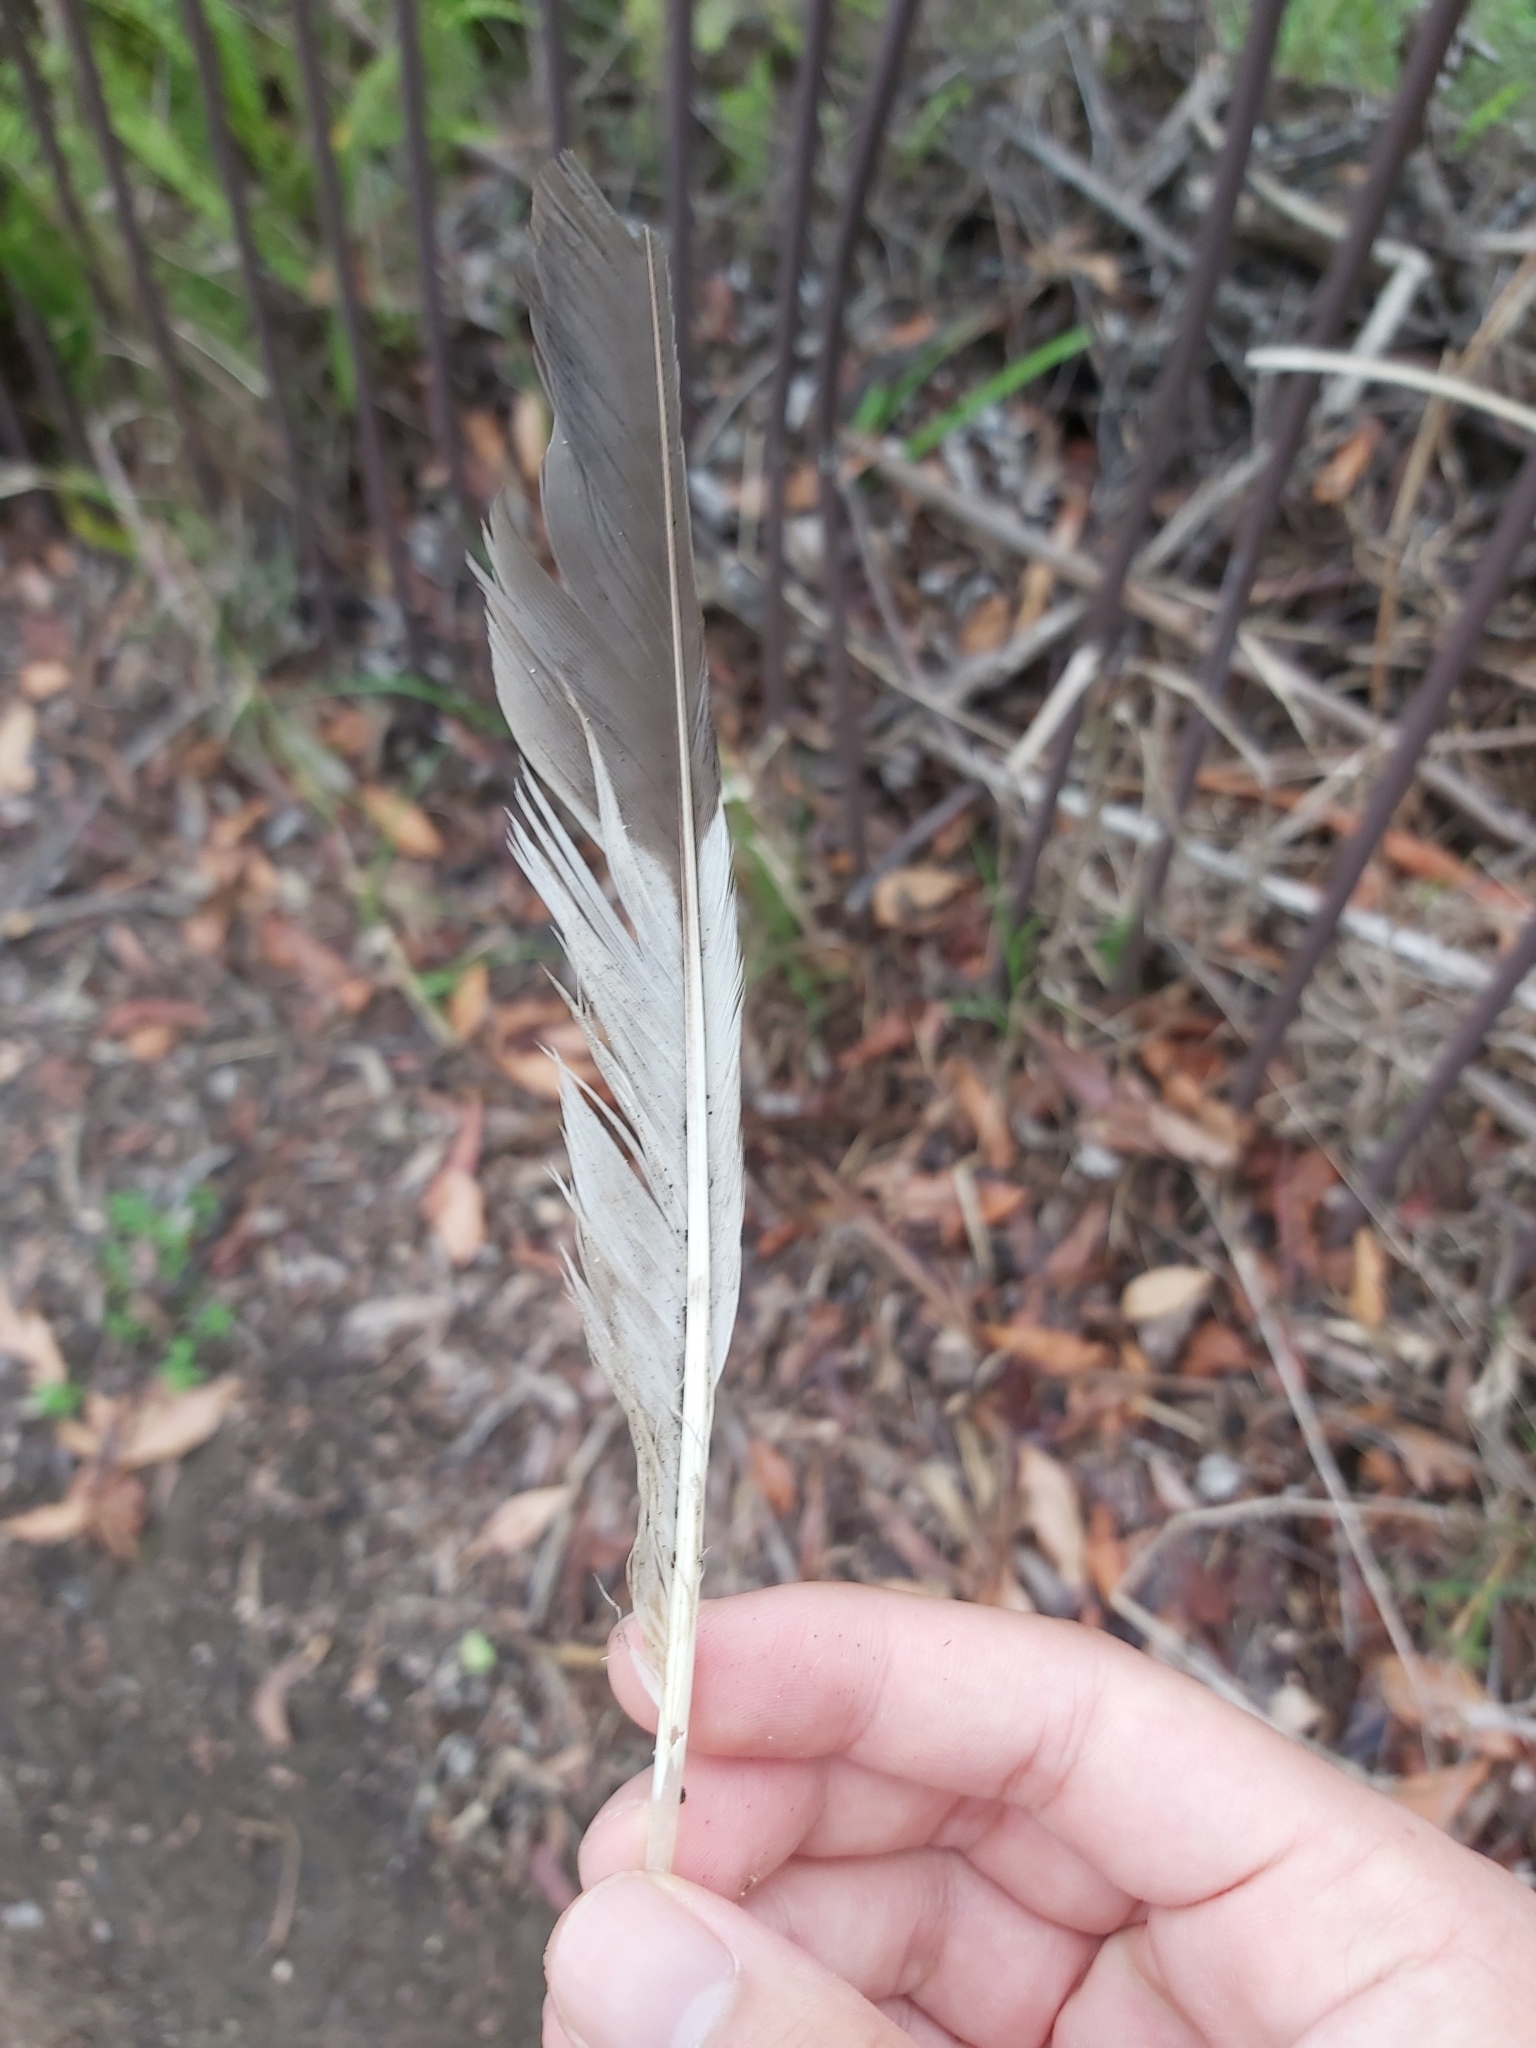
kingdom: Animalia
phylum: Chordata
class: Aves
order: Coraciiformes
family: Alcedinidae
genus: Dacelo
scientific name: Dacelo novaeguineae
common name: Laughing kookaburra
